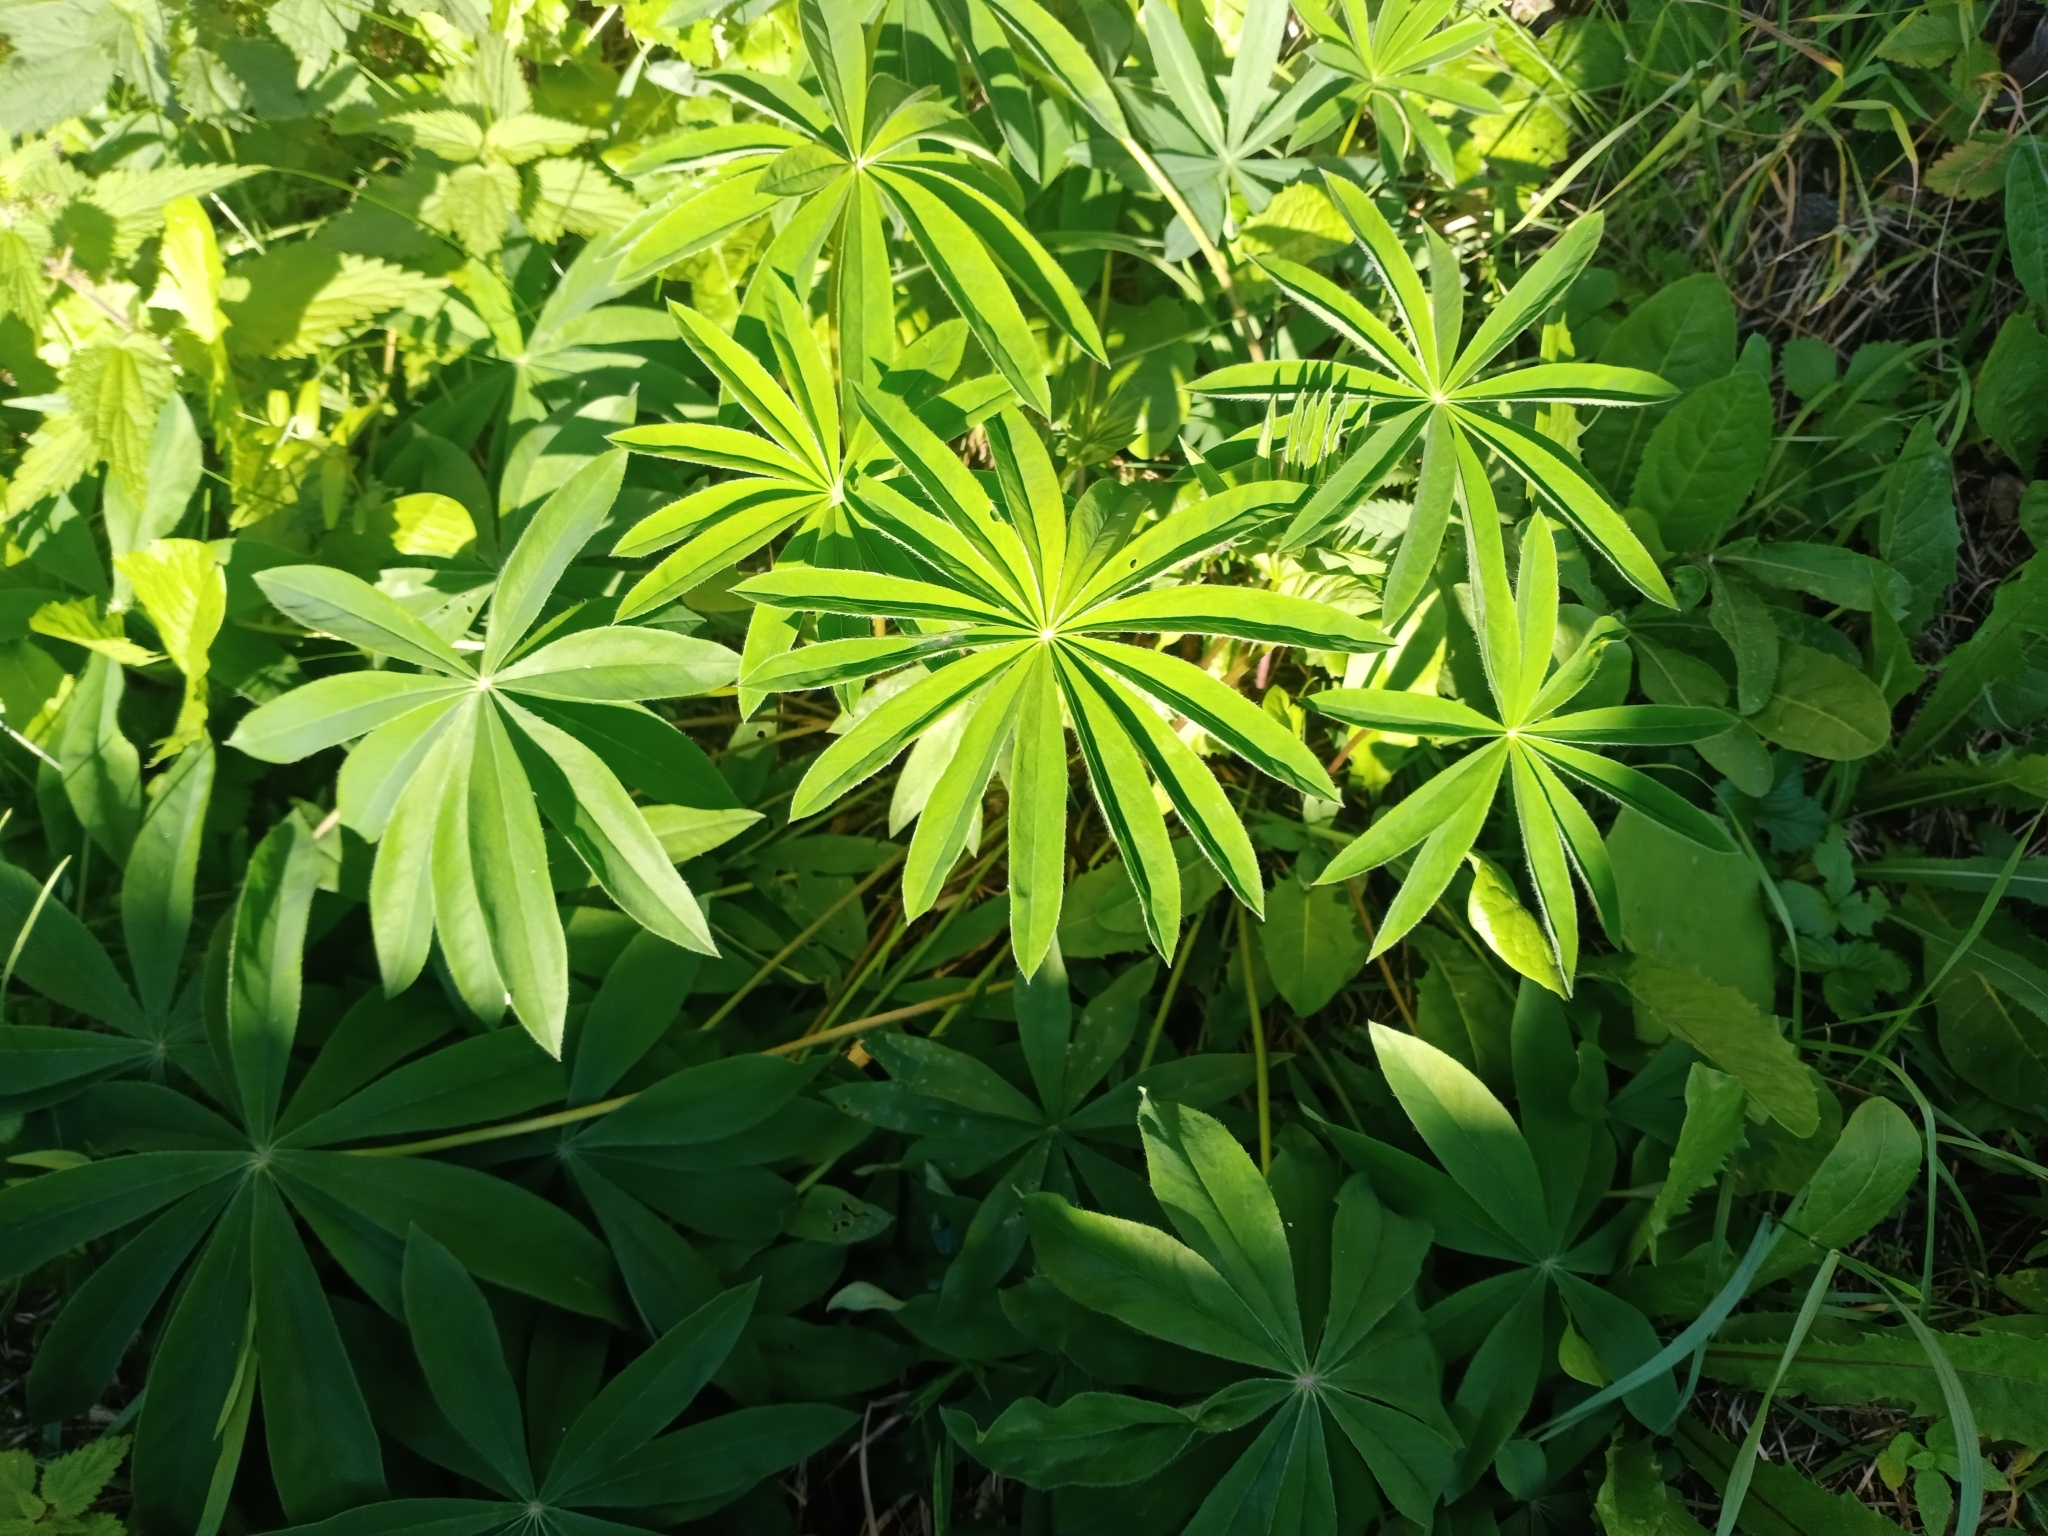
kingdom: Plantae
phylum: Tracheophyta
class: Magnoliopsida
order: Fabales
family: Fabaceae
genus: Lupinus
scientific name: Lupinus polyphyllus
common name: Garden lupin
